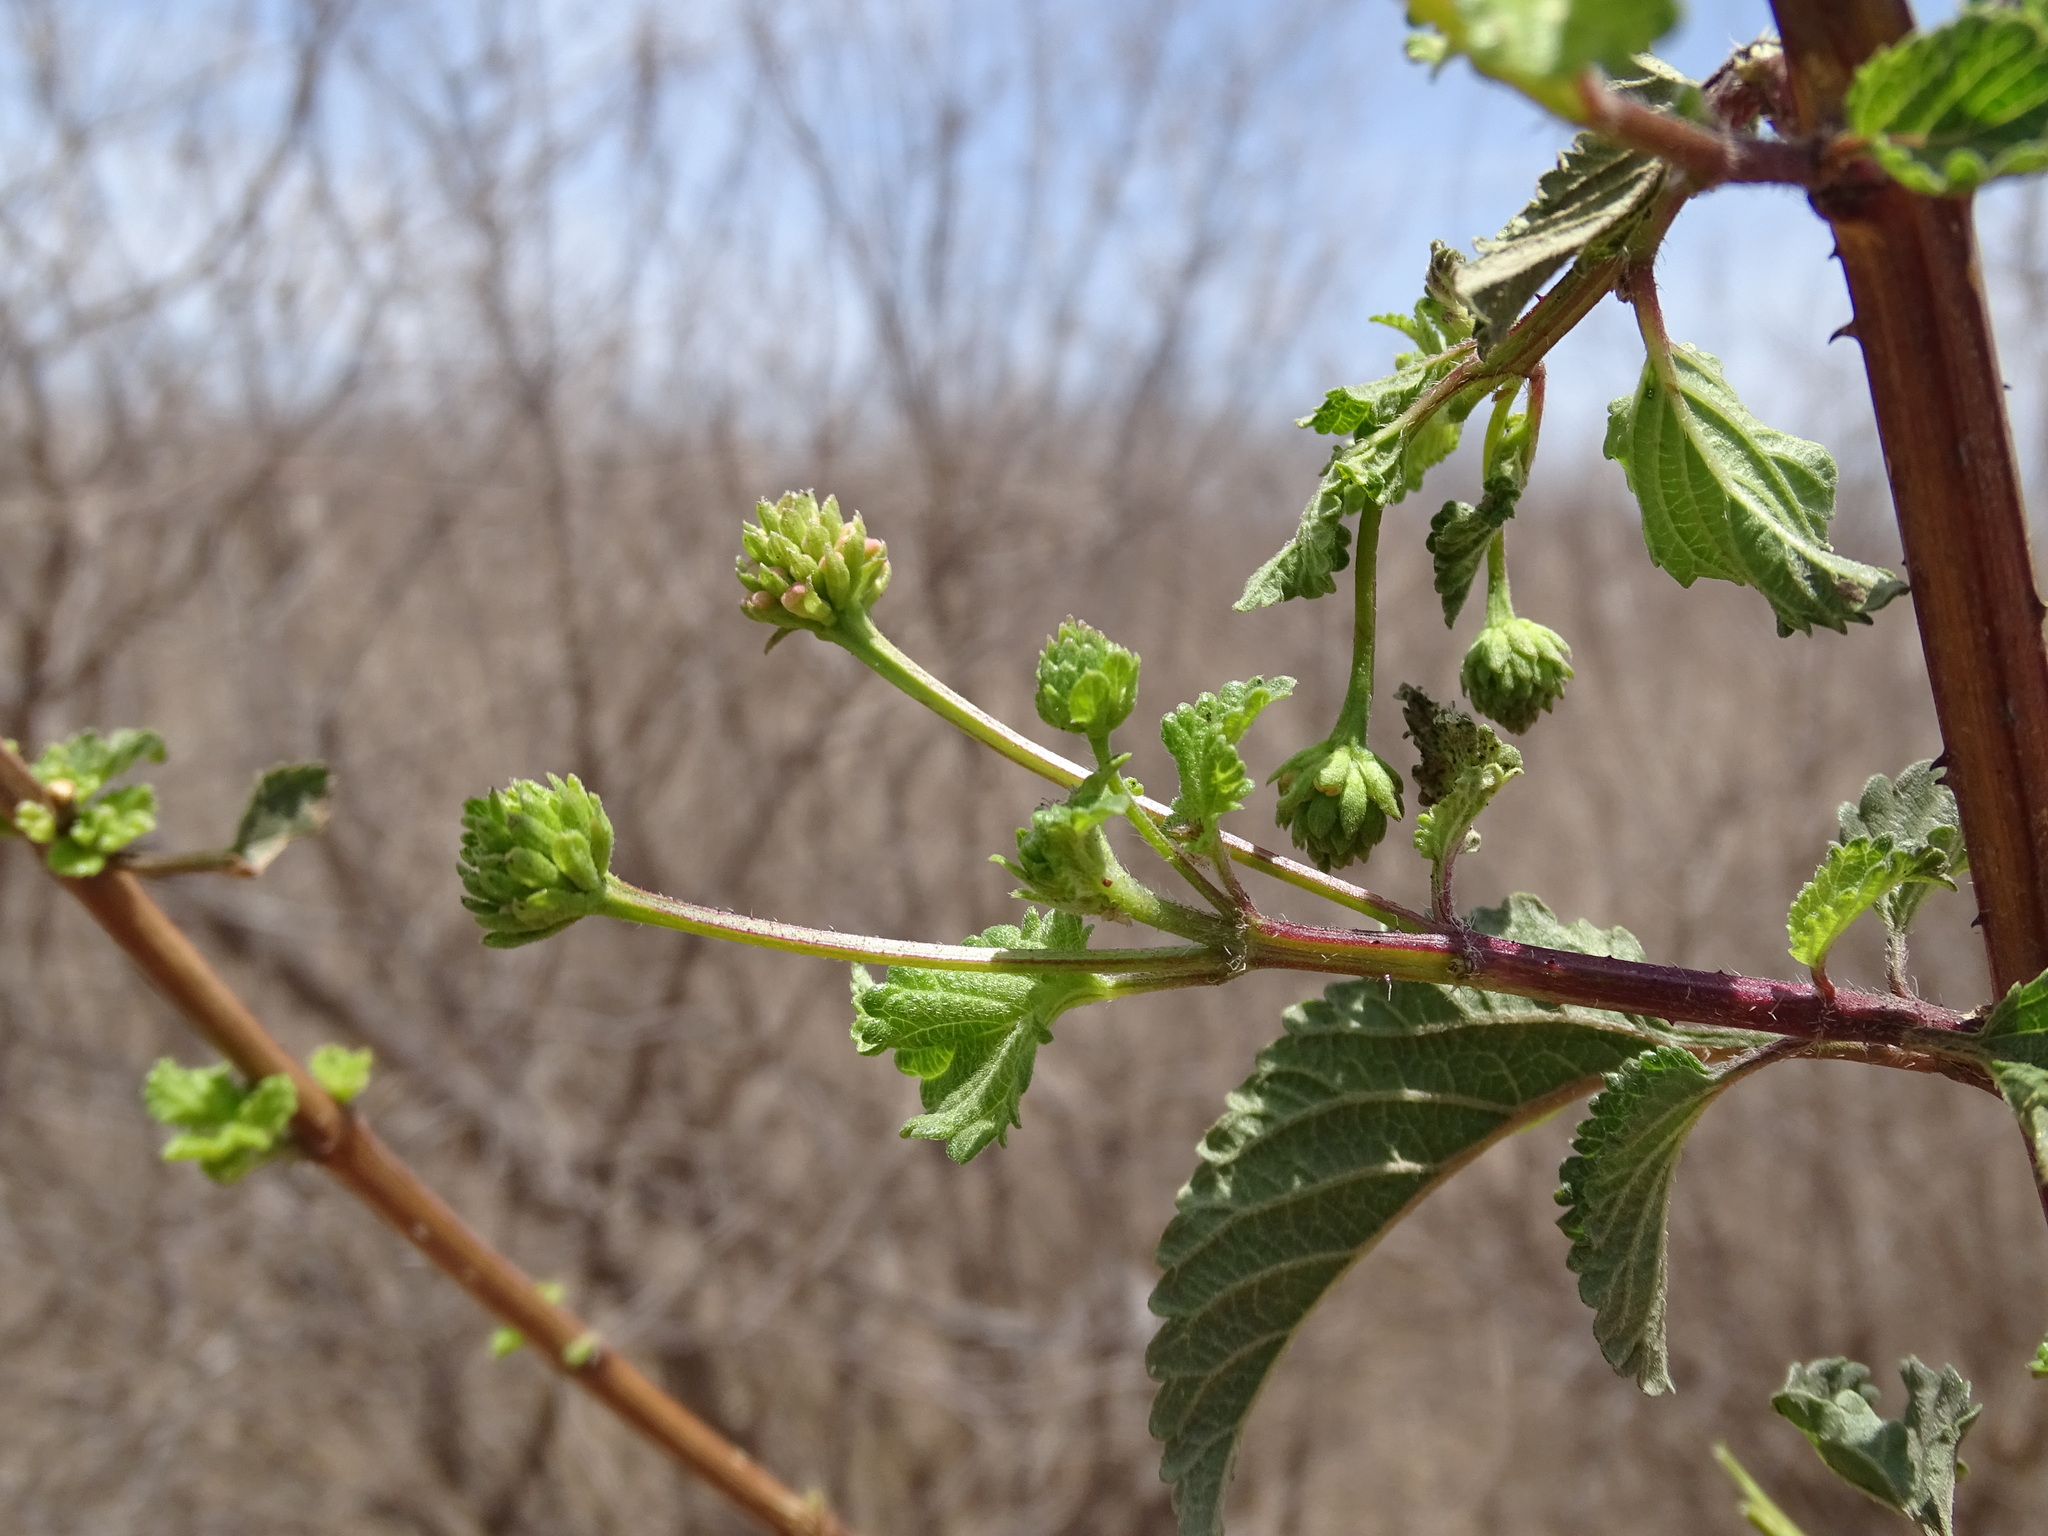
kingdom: Plantae
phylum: Tracheophyta
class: Magnoliopsida
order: Lamiales
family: Verbenaceae
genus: Lantana
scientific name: Lantana horrida
